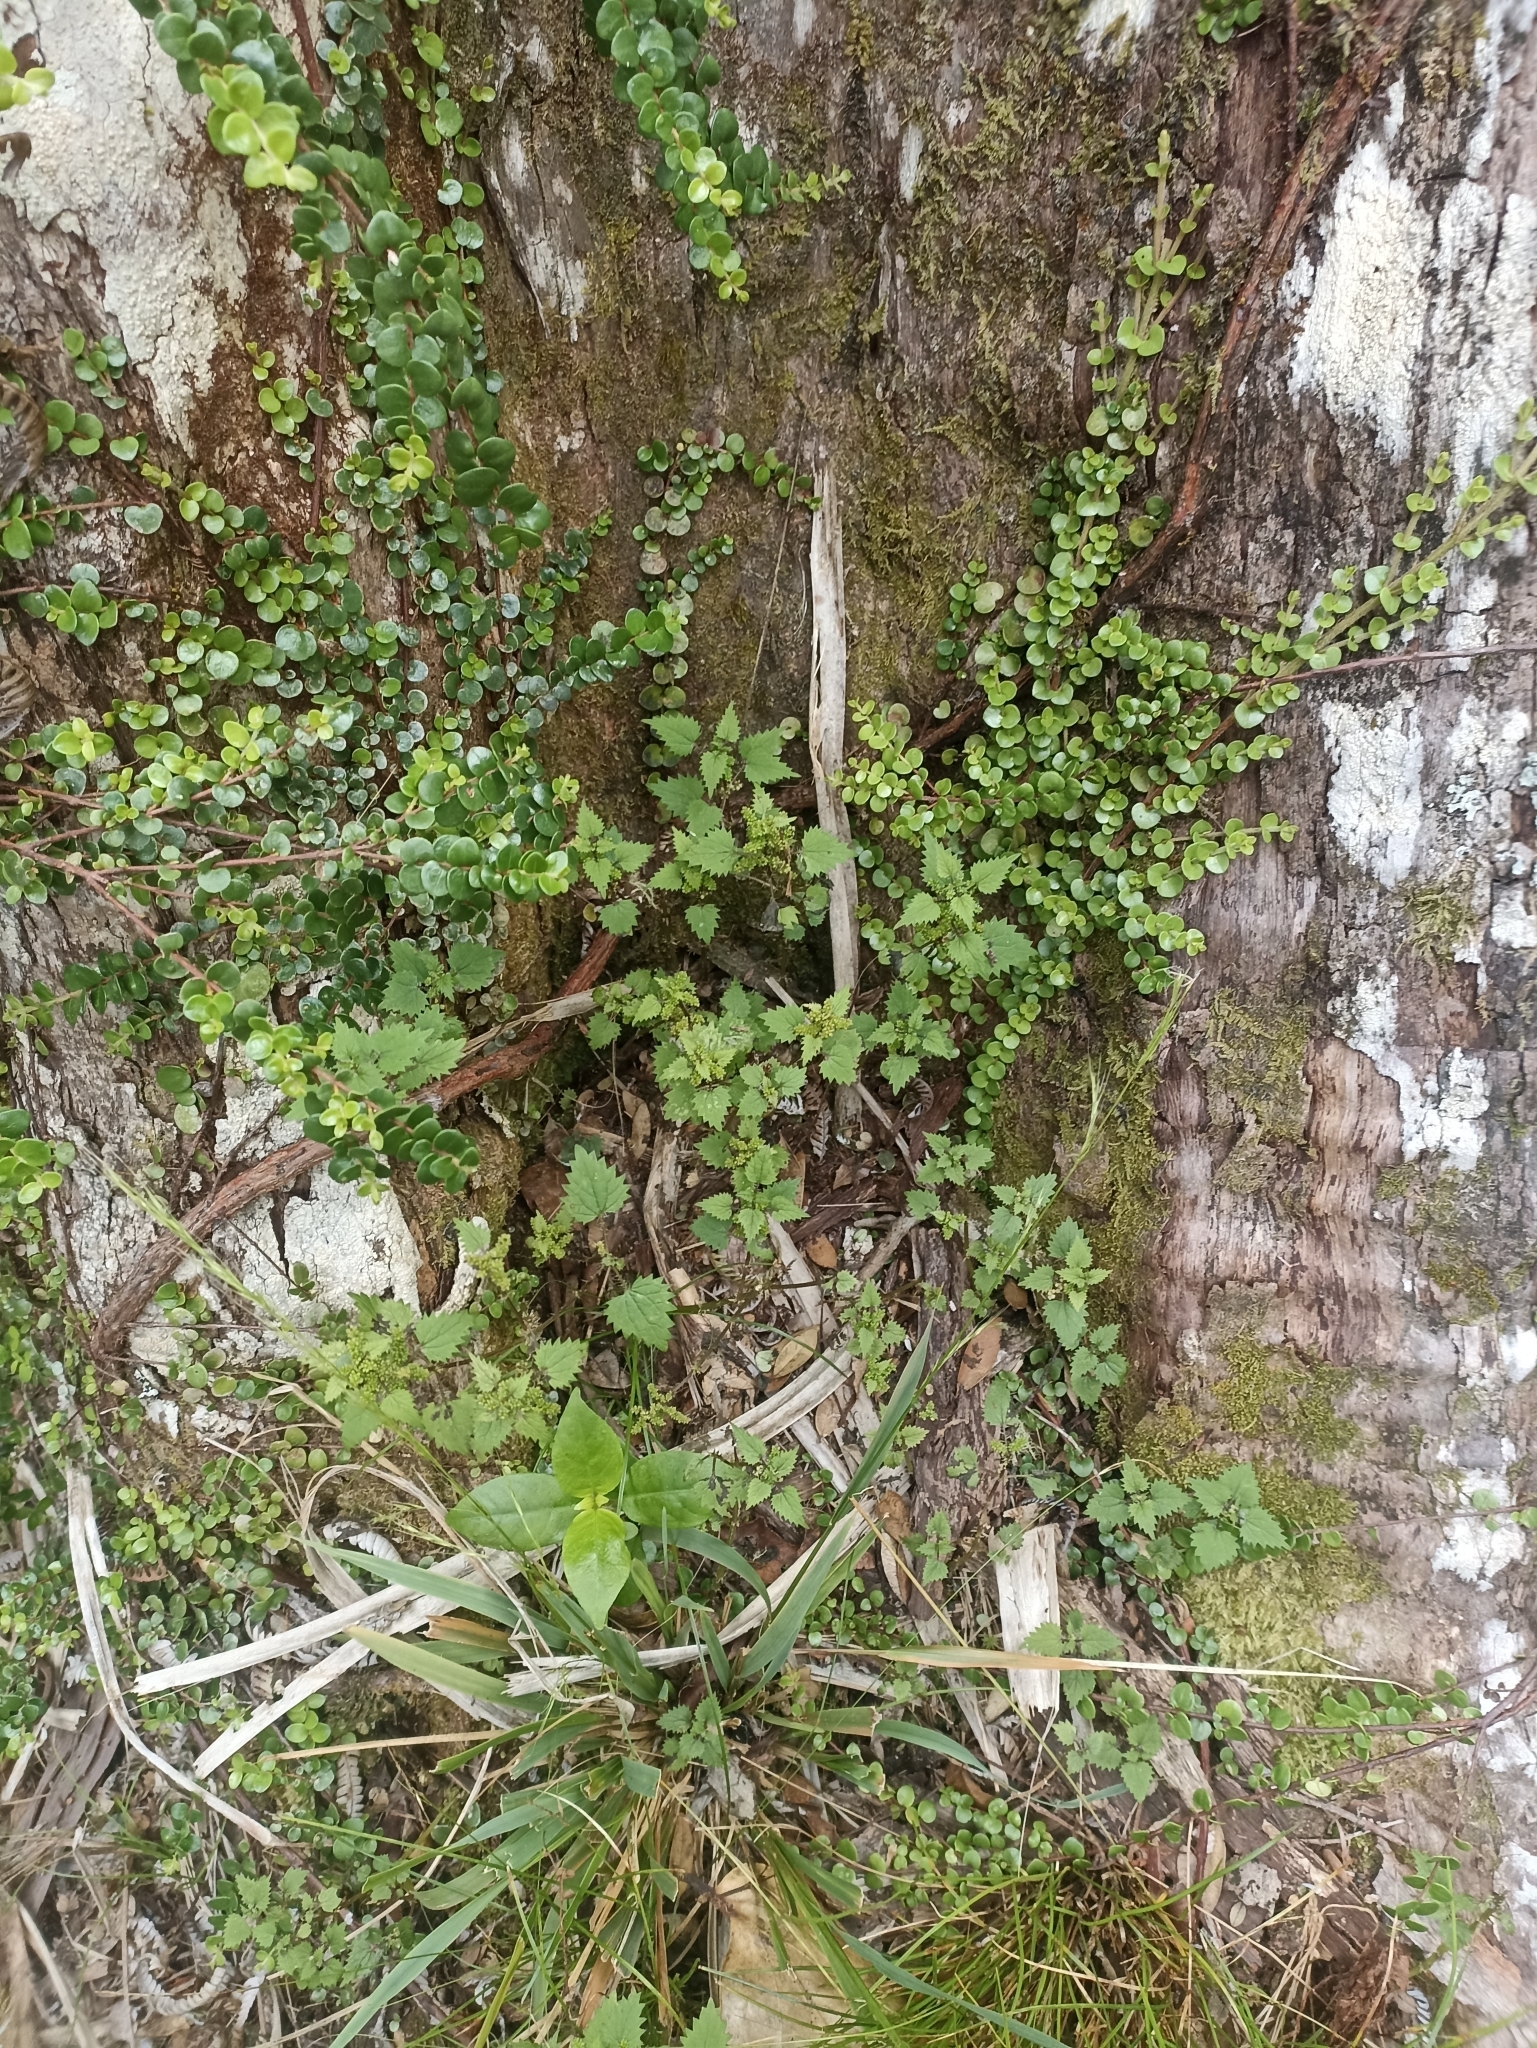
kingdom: Plantae
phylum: Tracheophyta
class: Magnoliopsida
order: Rosales
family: Urticaceae
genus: Urtica
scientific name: Urtica sykesii
